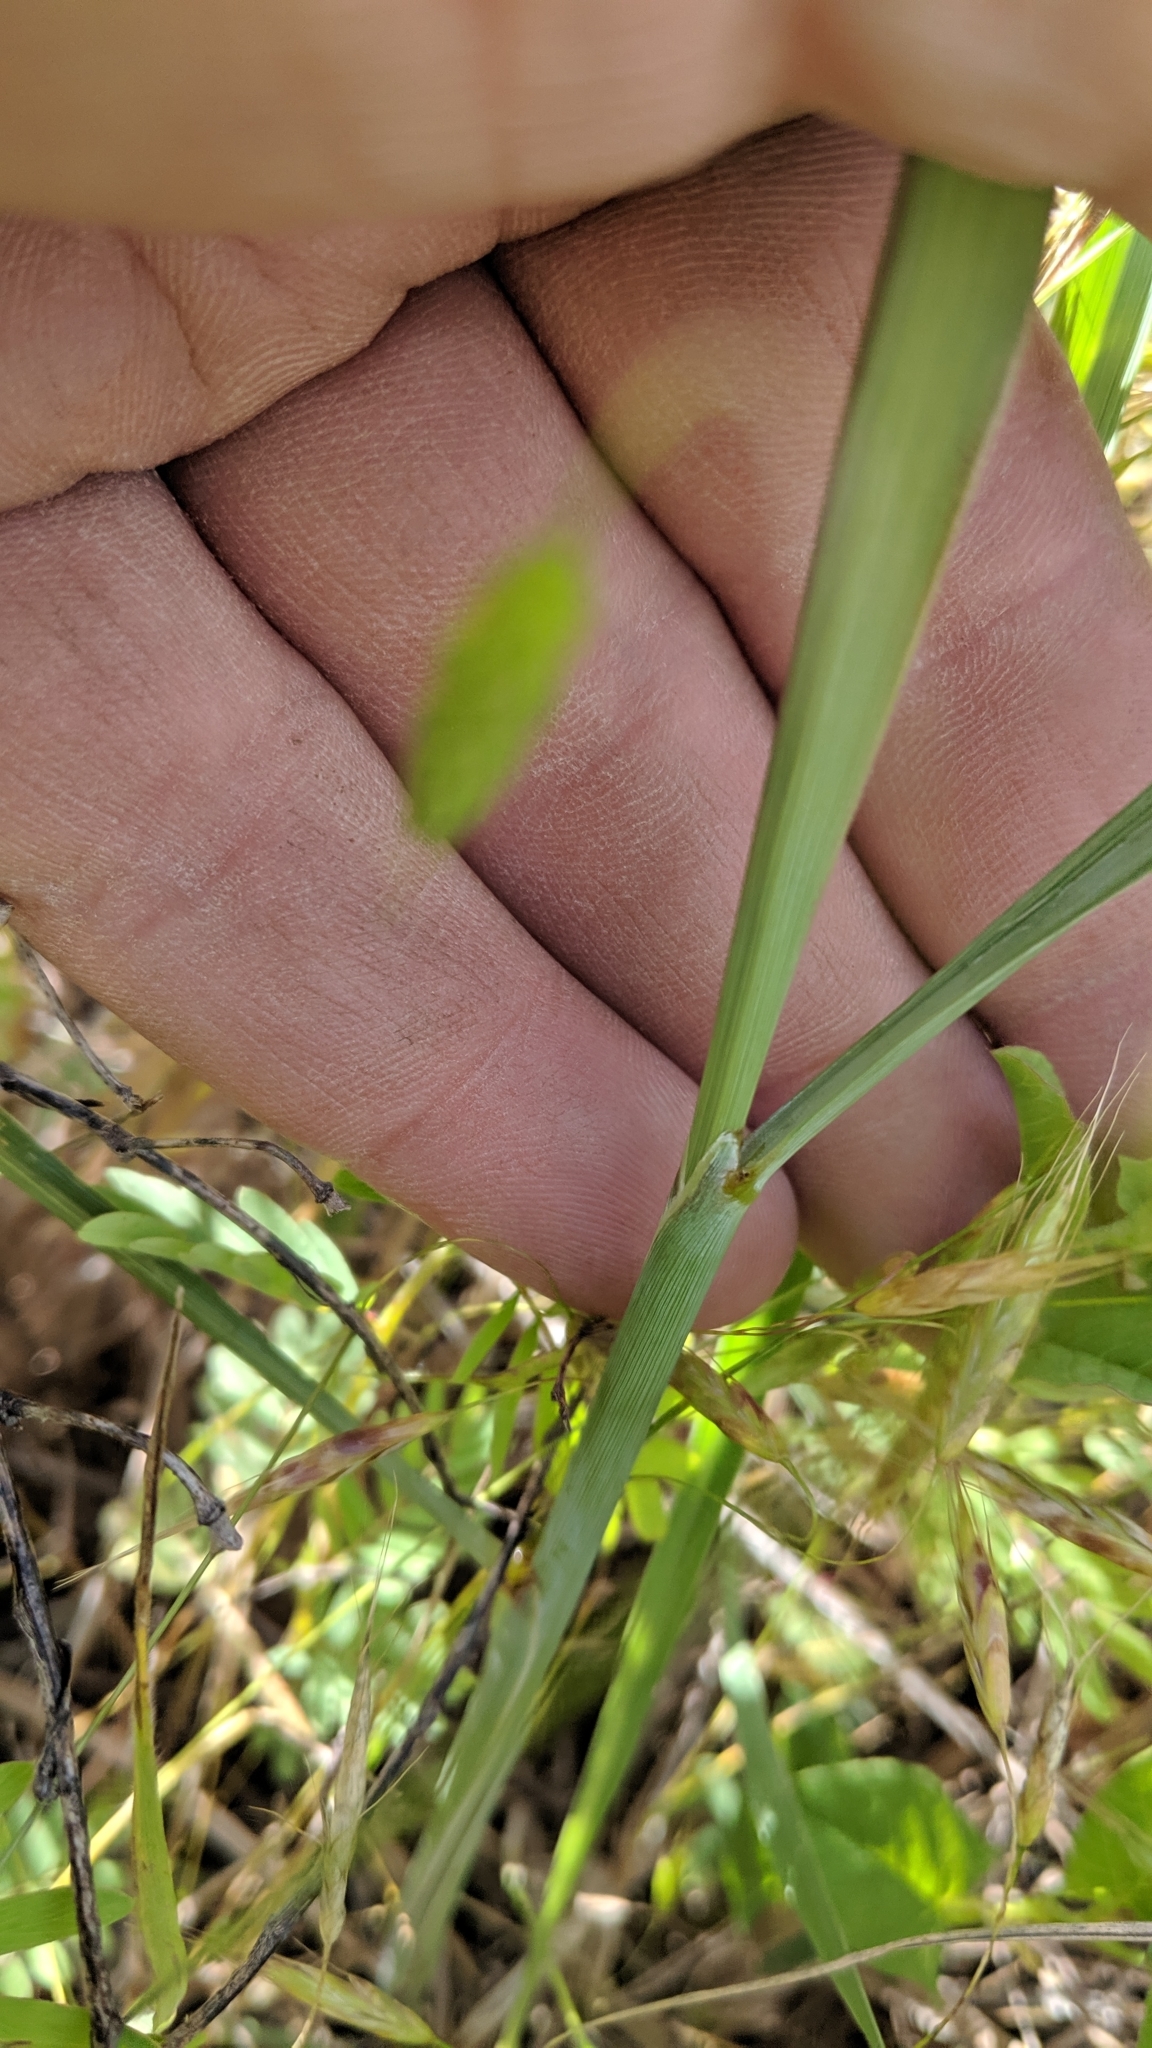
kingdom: Plantae
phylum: Tracheophyta
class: Liliopsida
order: Poales
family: Poaceae
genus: Sorghastrum
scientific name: Sorghastrum nutans
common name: Indian grass
